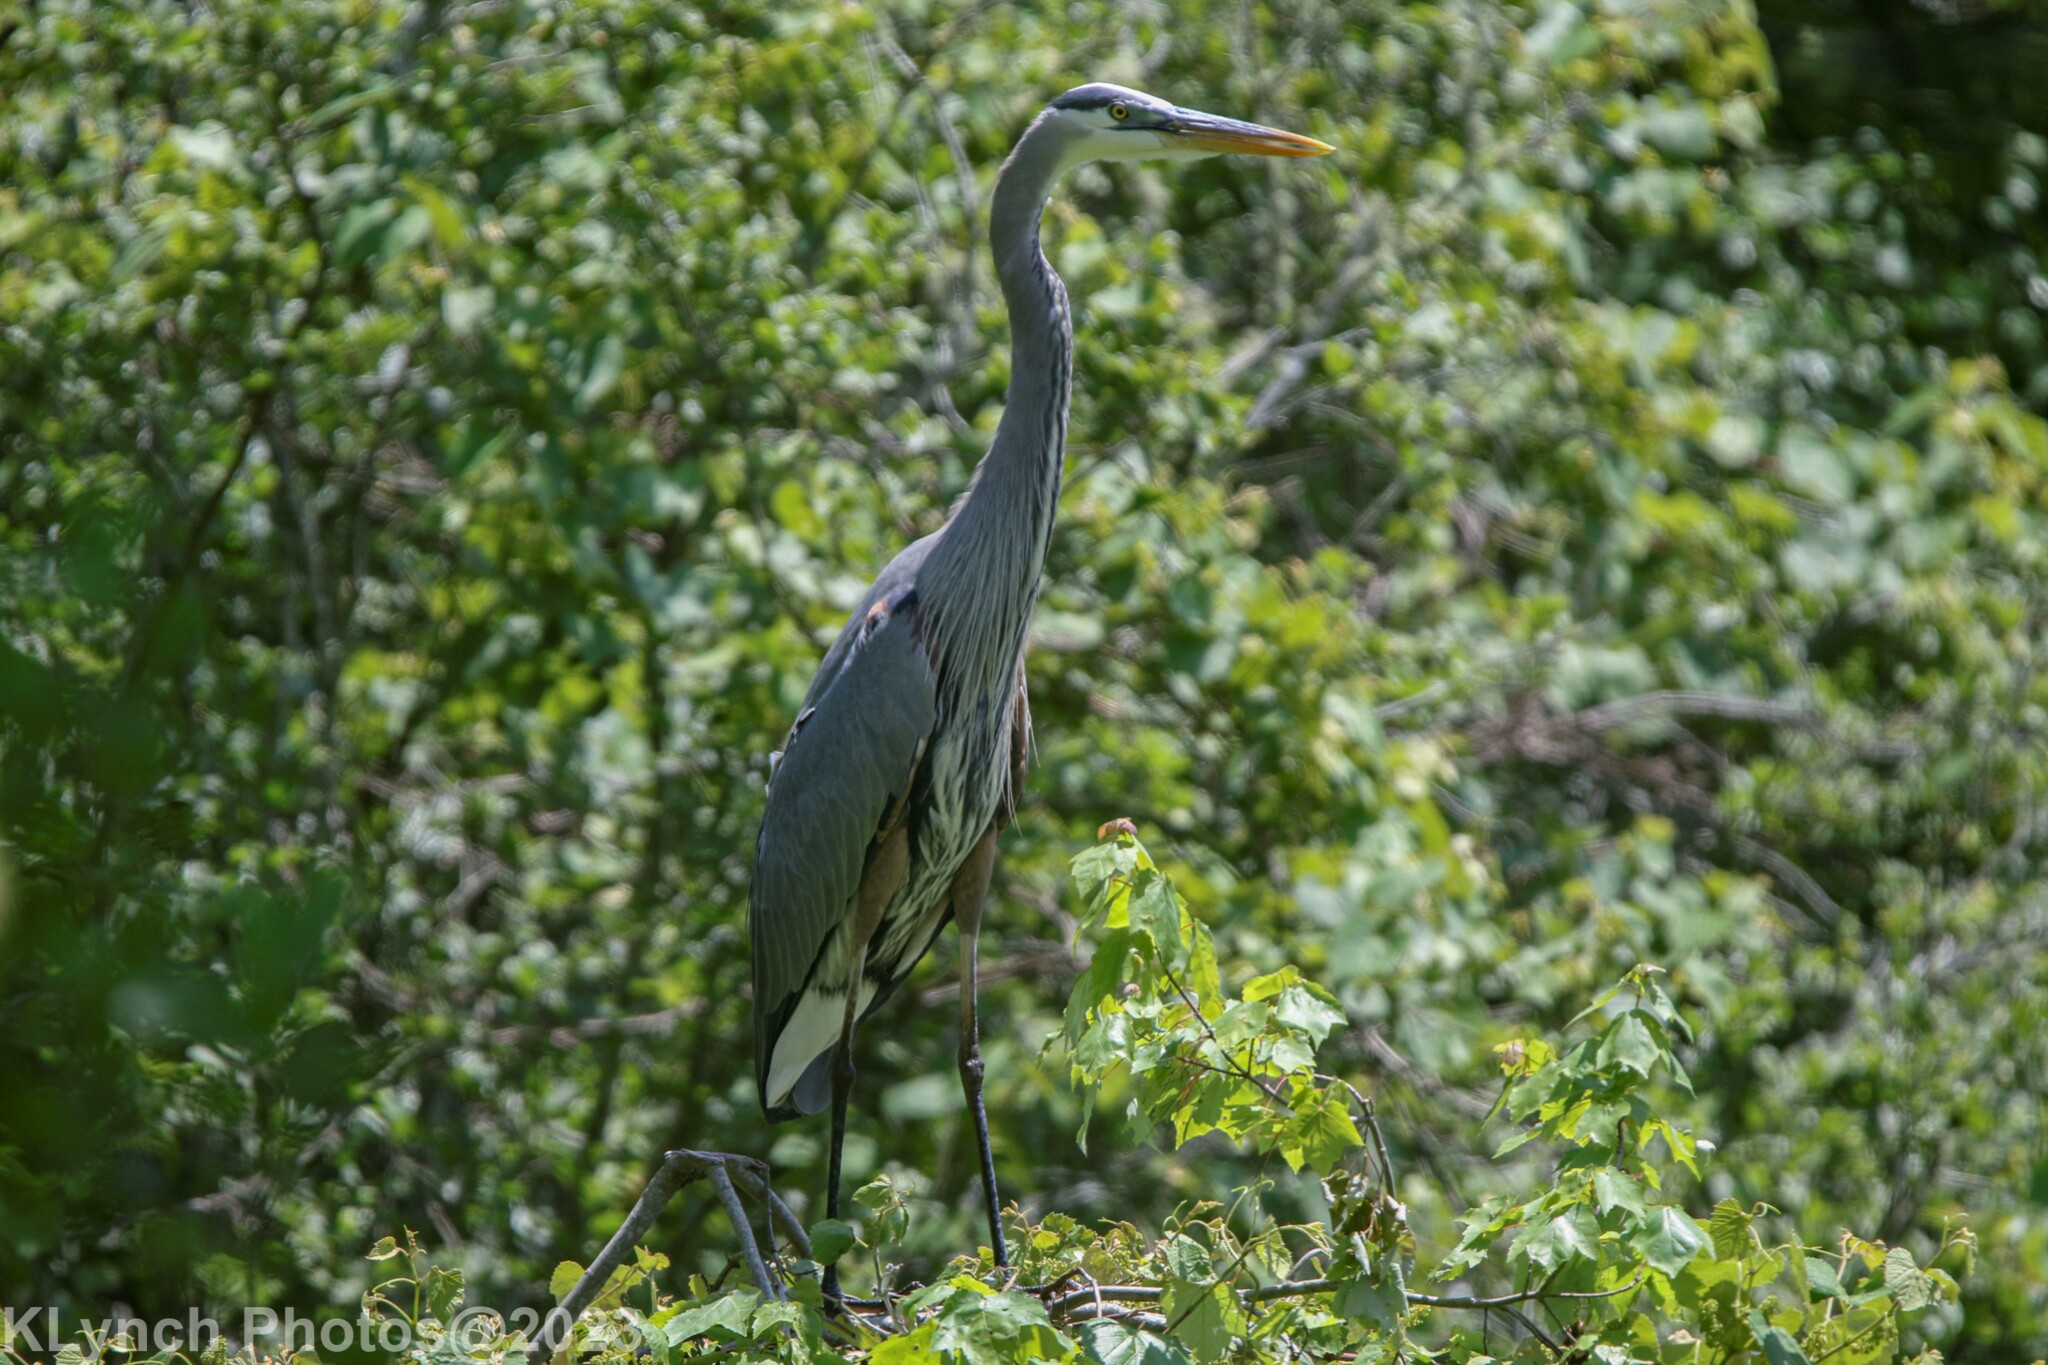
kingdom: Animalia
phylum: Chordata
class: Aves
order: Pelecaniformes
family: Ardeidae
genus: Ardea
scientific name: Ardea herodias
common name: Great blue heron
